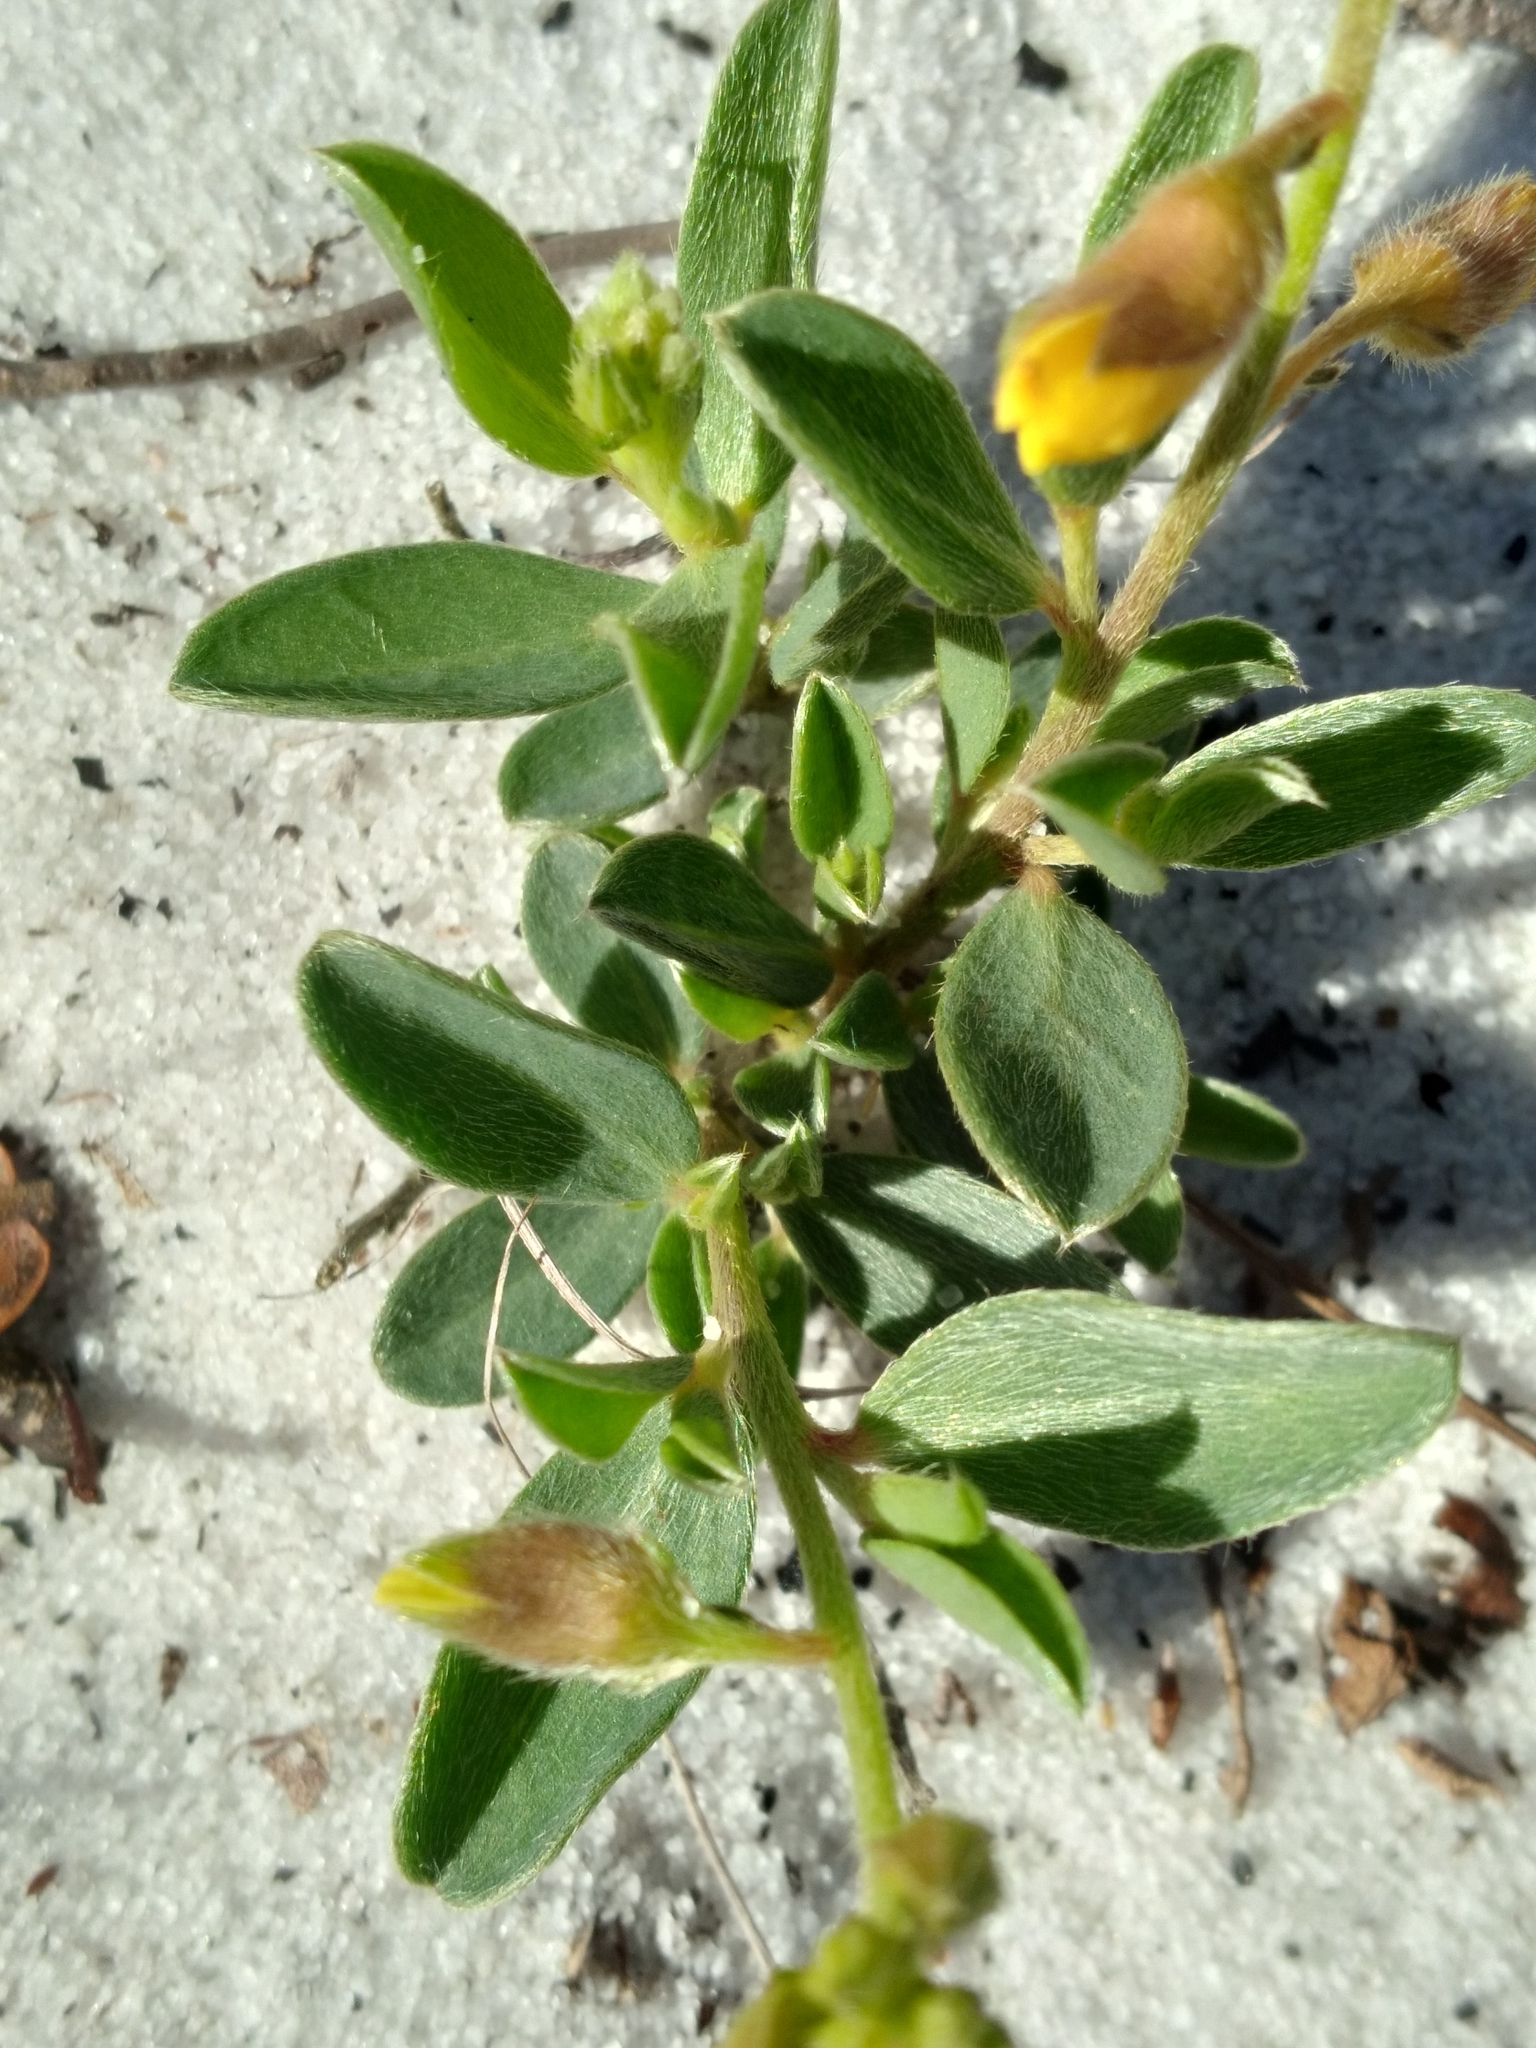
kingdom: Plantae
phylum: Tracheophyta
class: Magnoliopsida
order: Fabales
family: Fabaceae
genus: Crotalaria
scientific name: Crotalaria avonensis
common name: Avon park harebells
